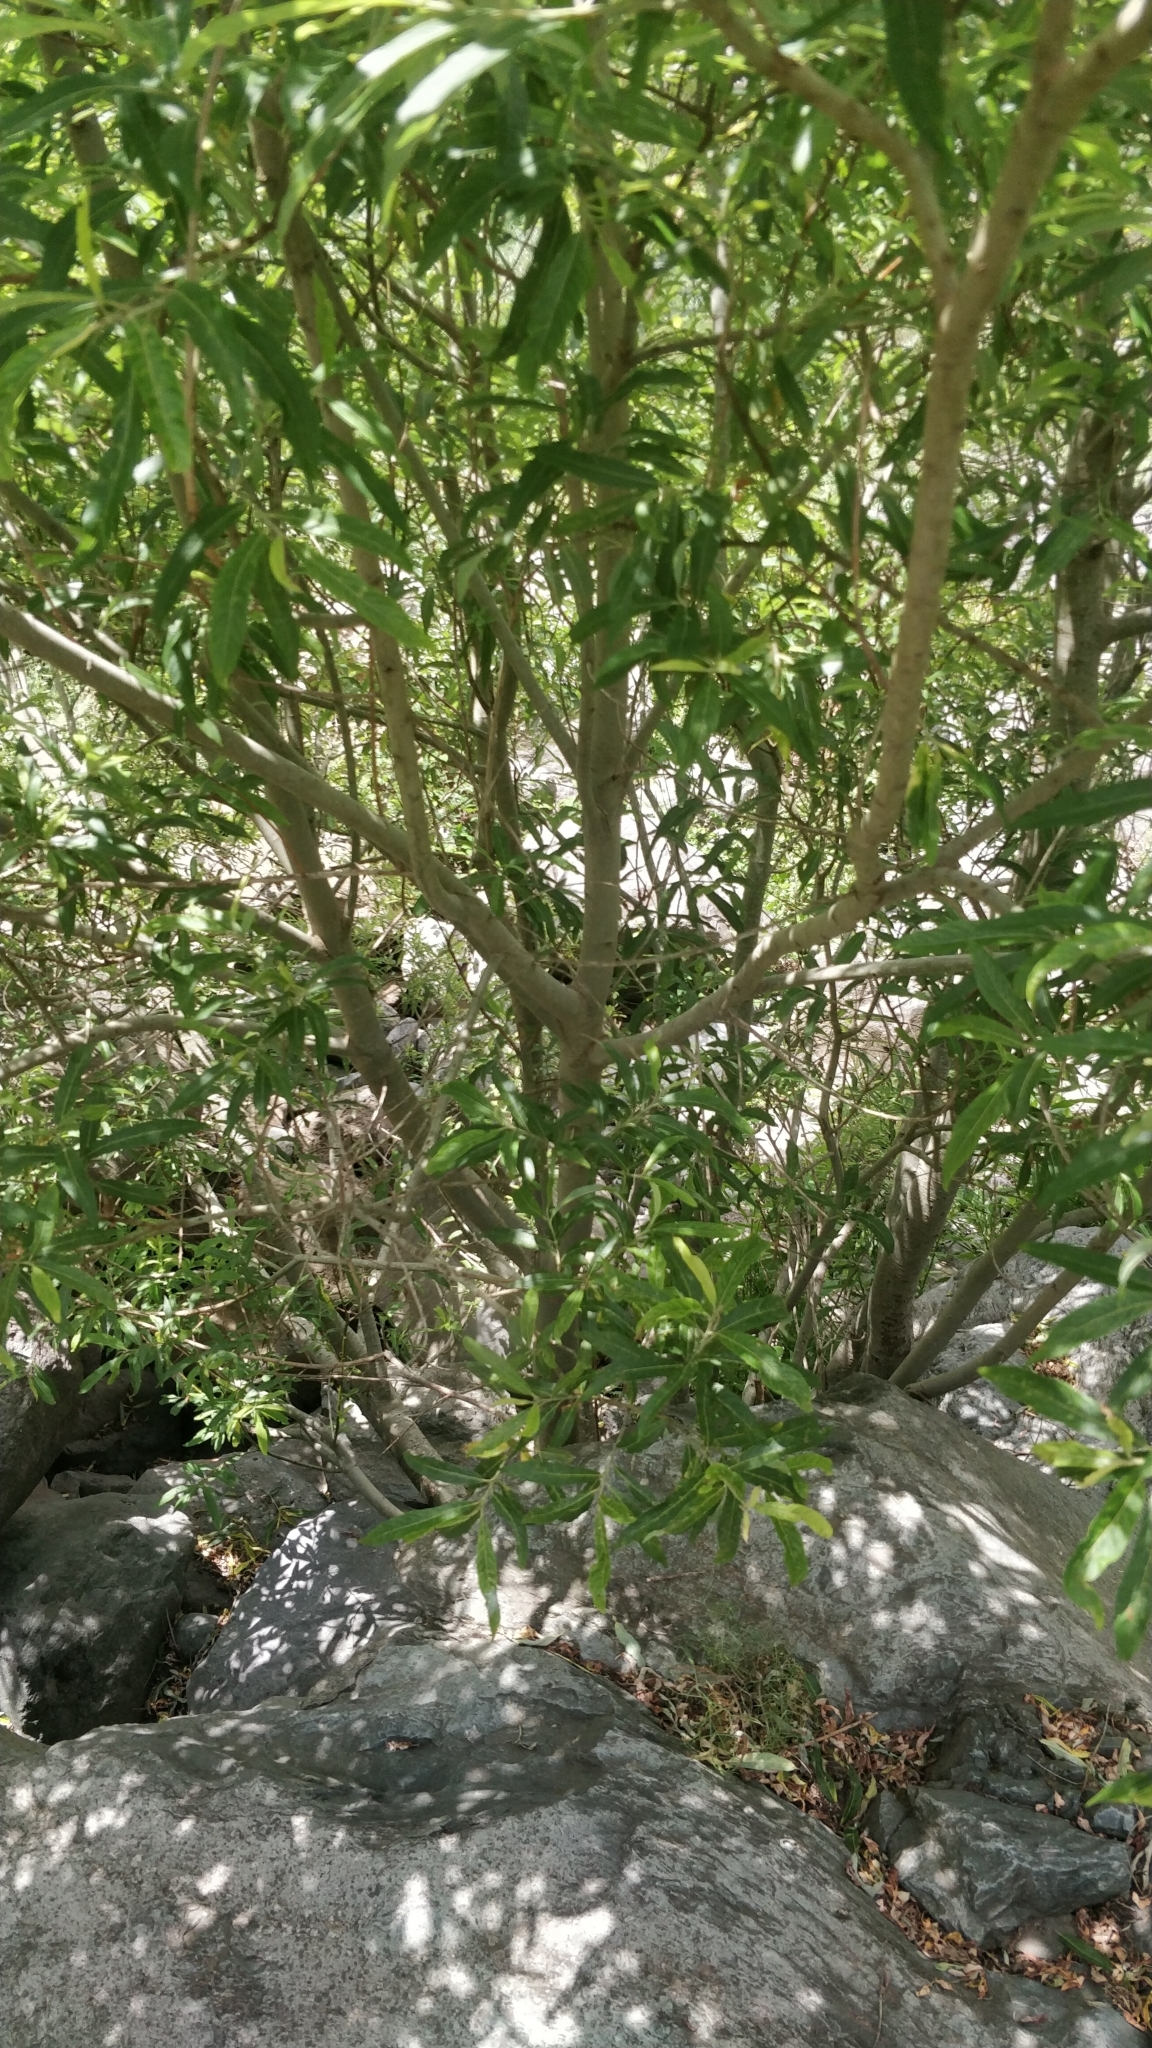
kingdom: Plantae
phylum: Tracheophyta
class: Magnoliopsida
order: Malpighiales
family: Salicaceae
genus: Salix
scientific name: Salix canariensis
